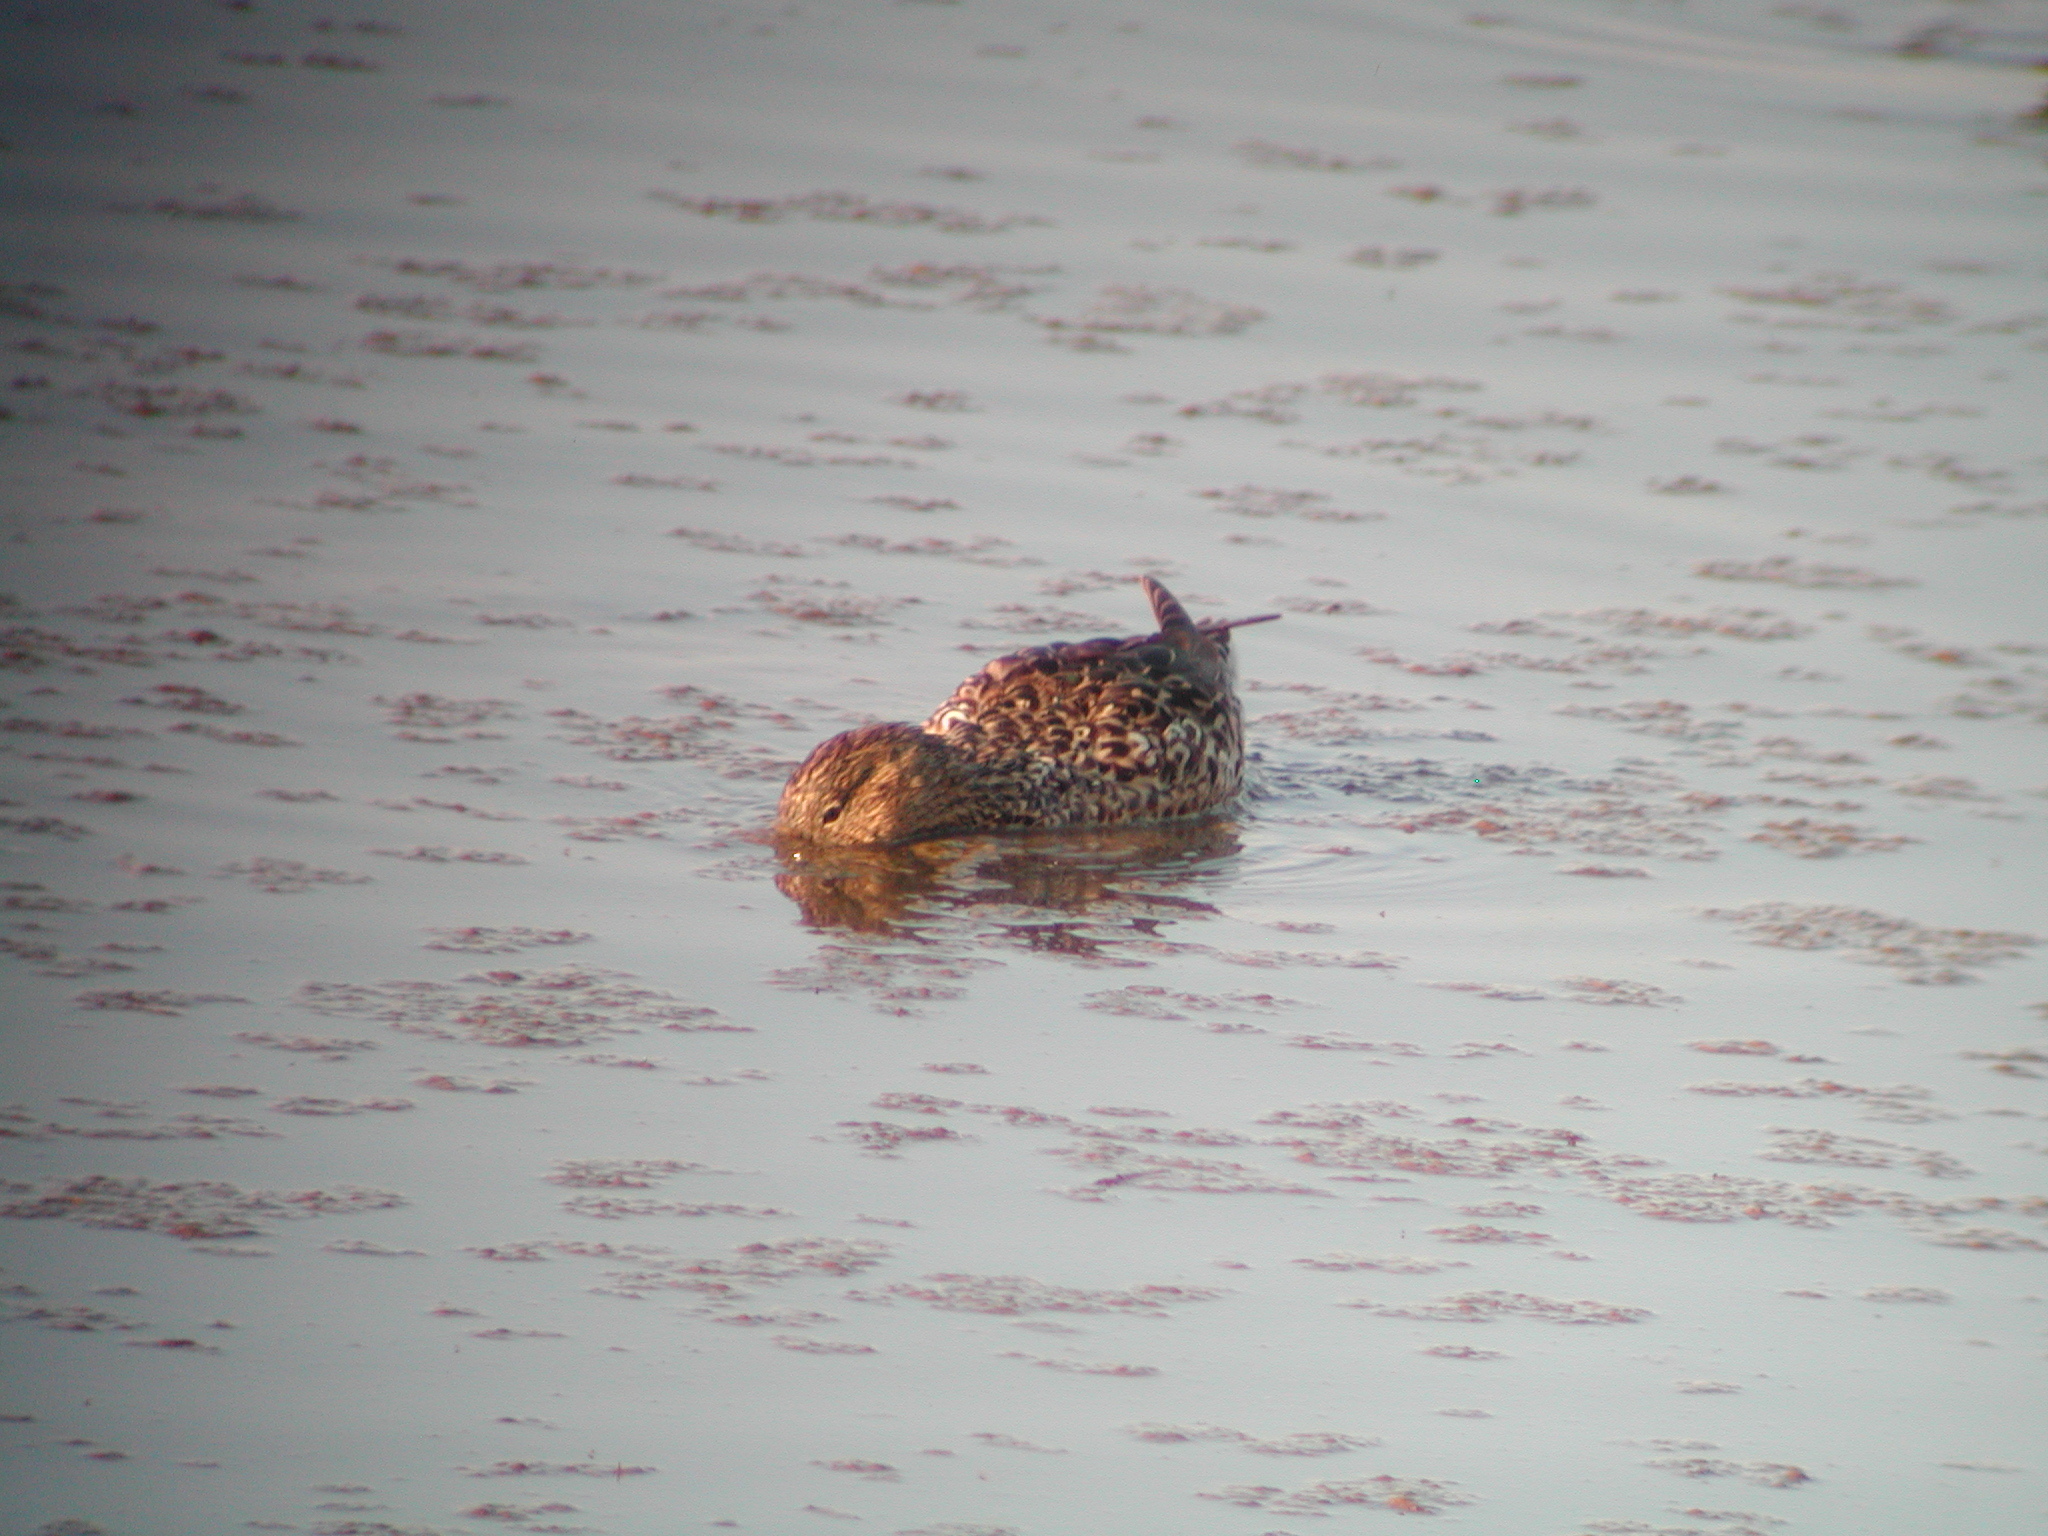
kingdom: Animalia
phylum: Chordata
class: Aves
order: Anseriformes
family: Anatidae
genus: Spatula
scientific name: Spatula clypeata
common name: Northern shoveler
